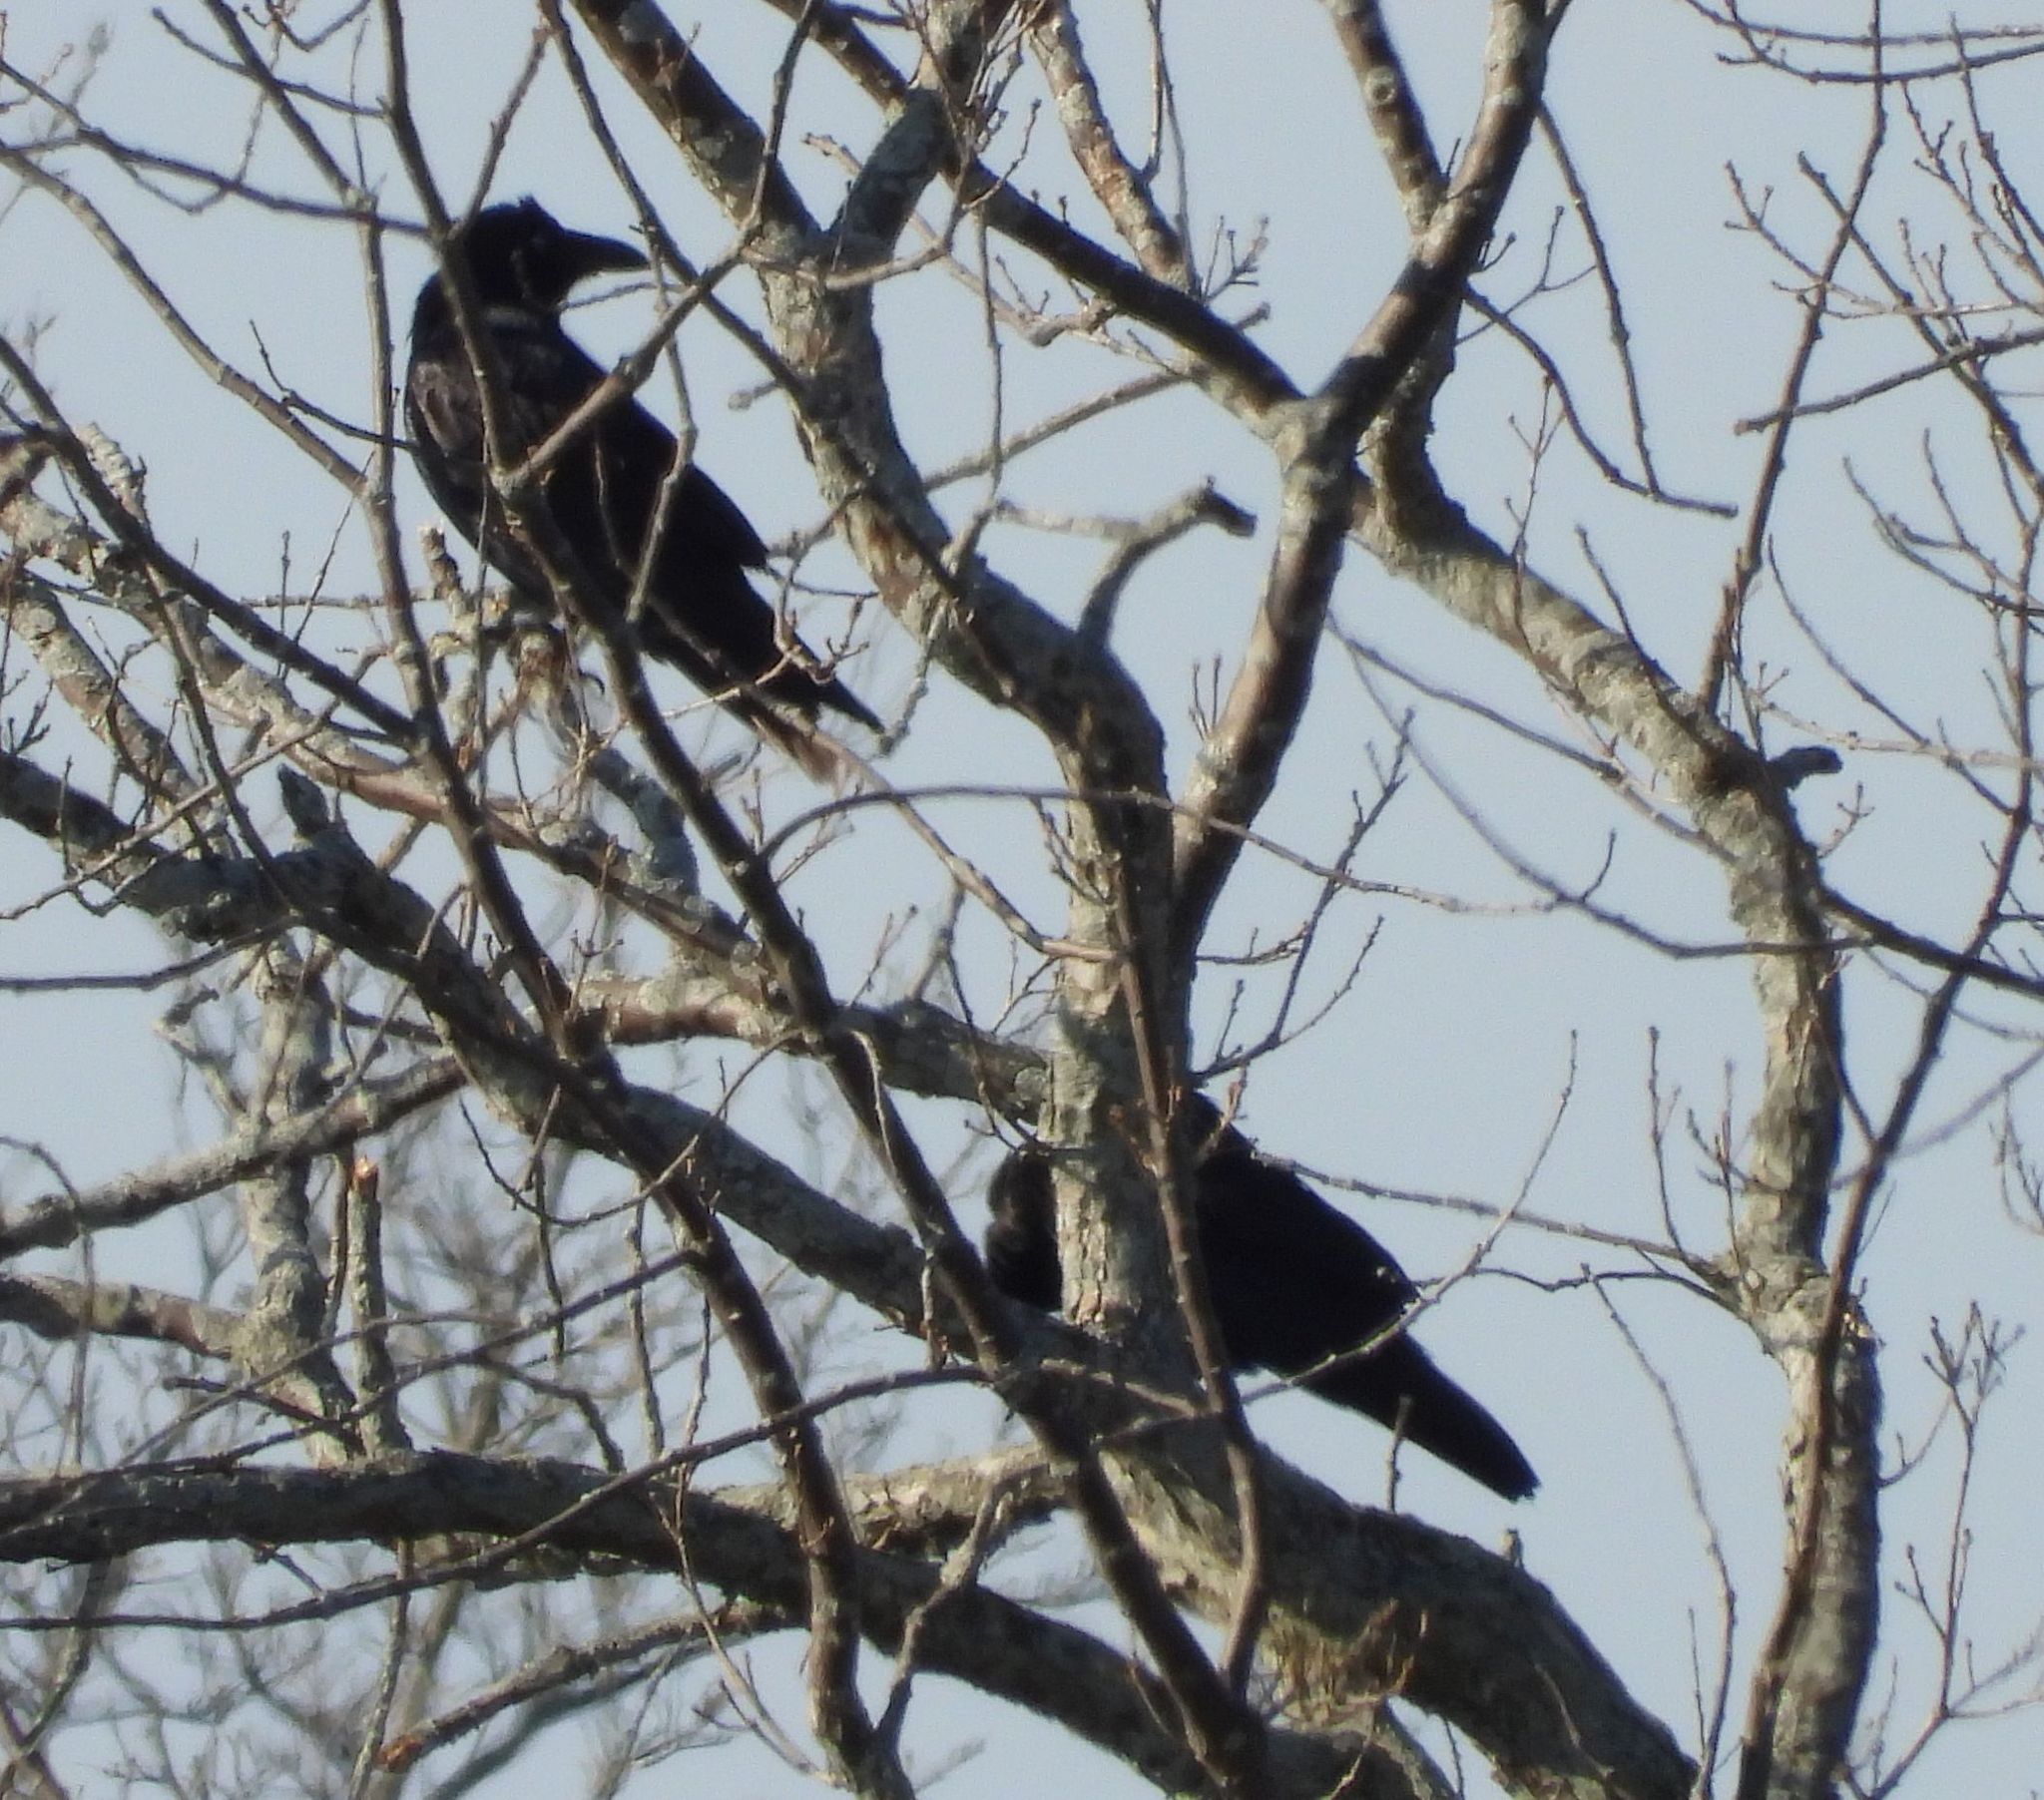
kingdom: Animalia
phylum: Chordata
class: Aves
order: Passeriformes
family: Corvidae
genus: Corvus
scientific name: Corvus corax
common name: Common raven
